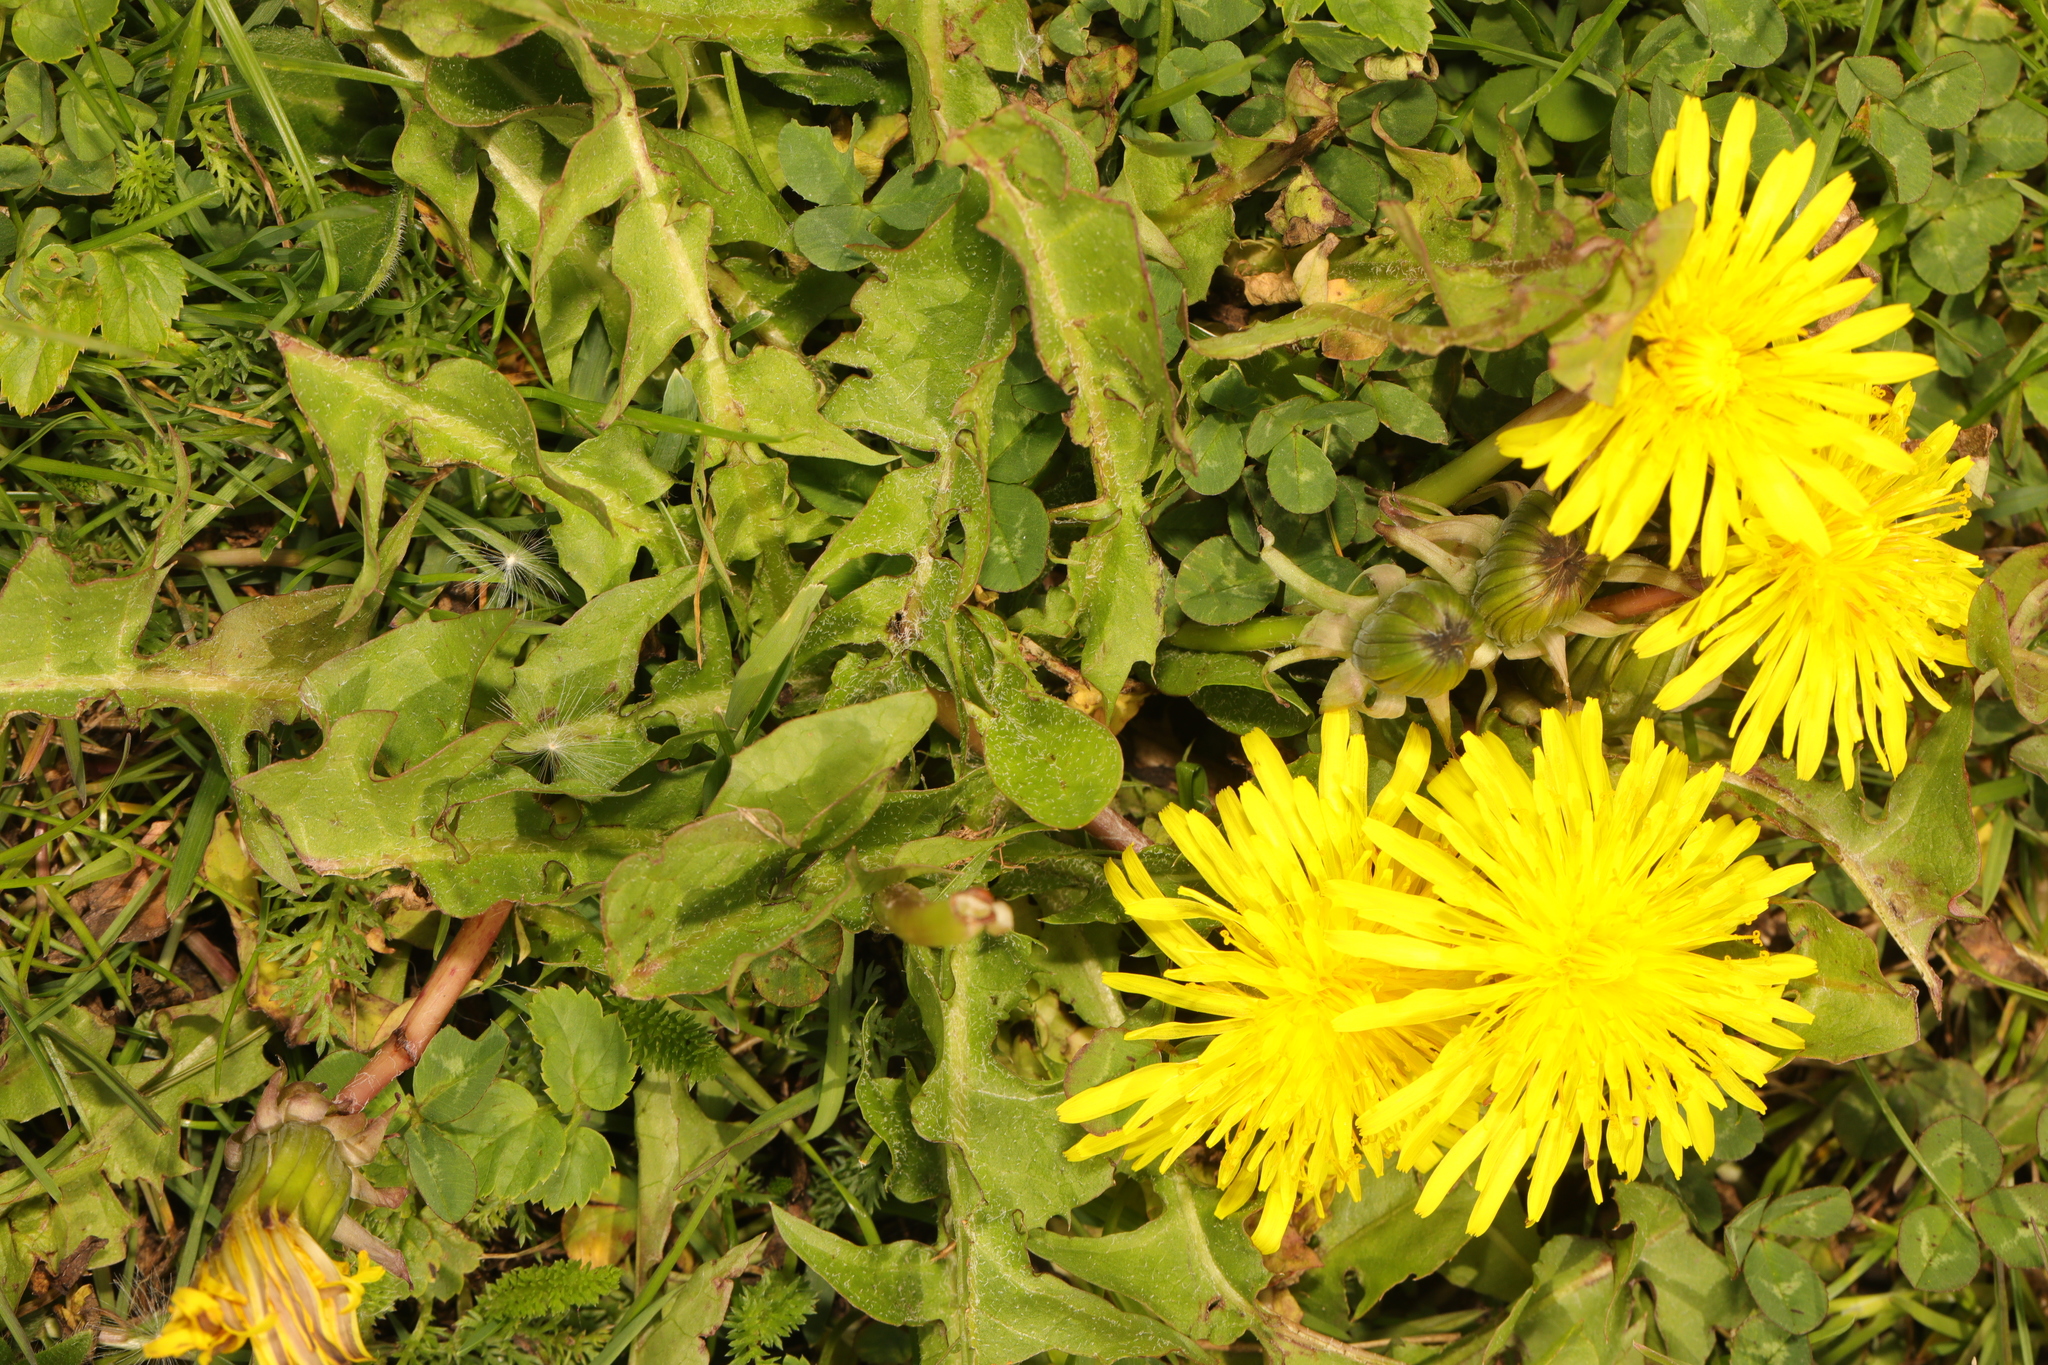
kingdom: Plantae
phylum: Tracheophyta
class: Magnoliopsida
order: Asterales
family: Asteraceae
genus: Taraxacum
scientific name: Taraxacum officinale
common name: Common dandelion
